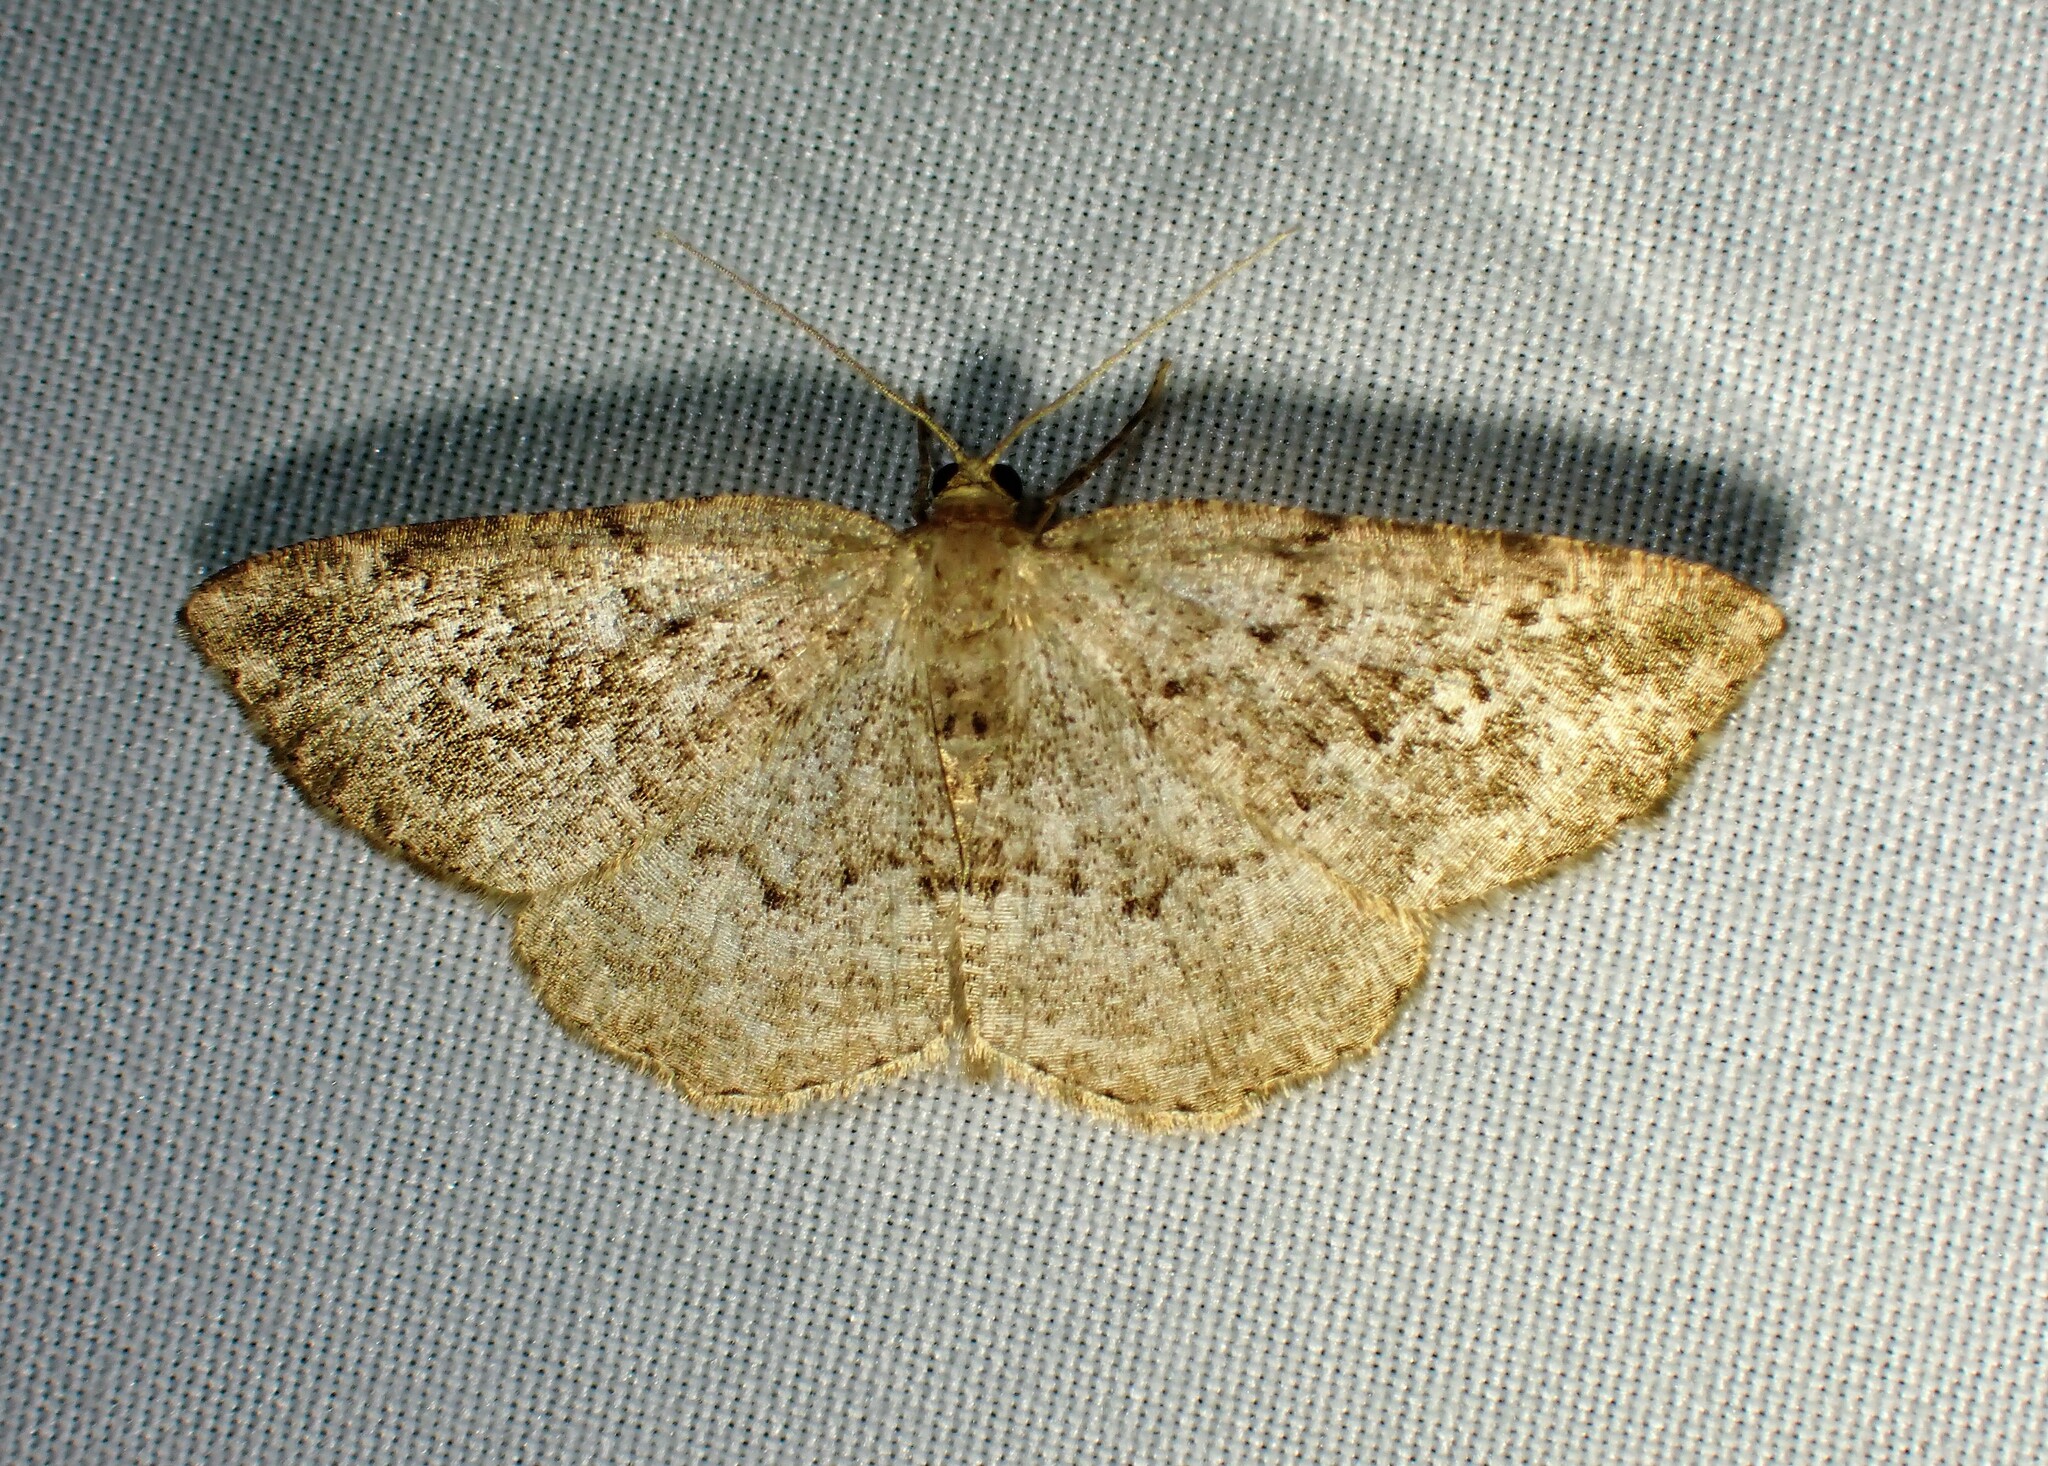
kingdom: Animalia
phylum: Arthropoda
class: Insecta
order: Lepidoptera
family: Geometridae
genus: Homochlodes
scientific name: Homochlodes fritillaria
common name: Pale homochlodes
